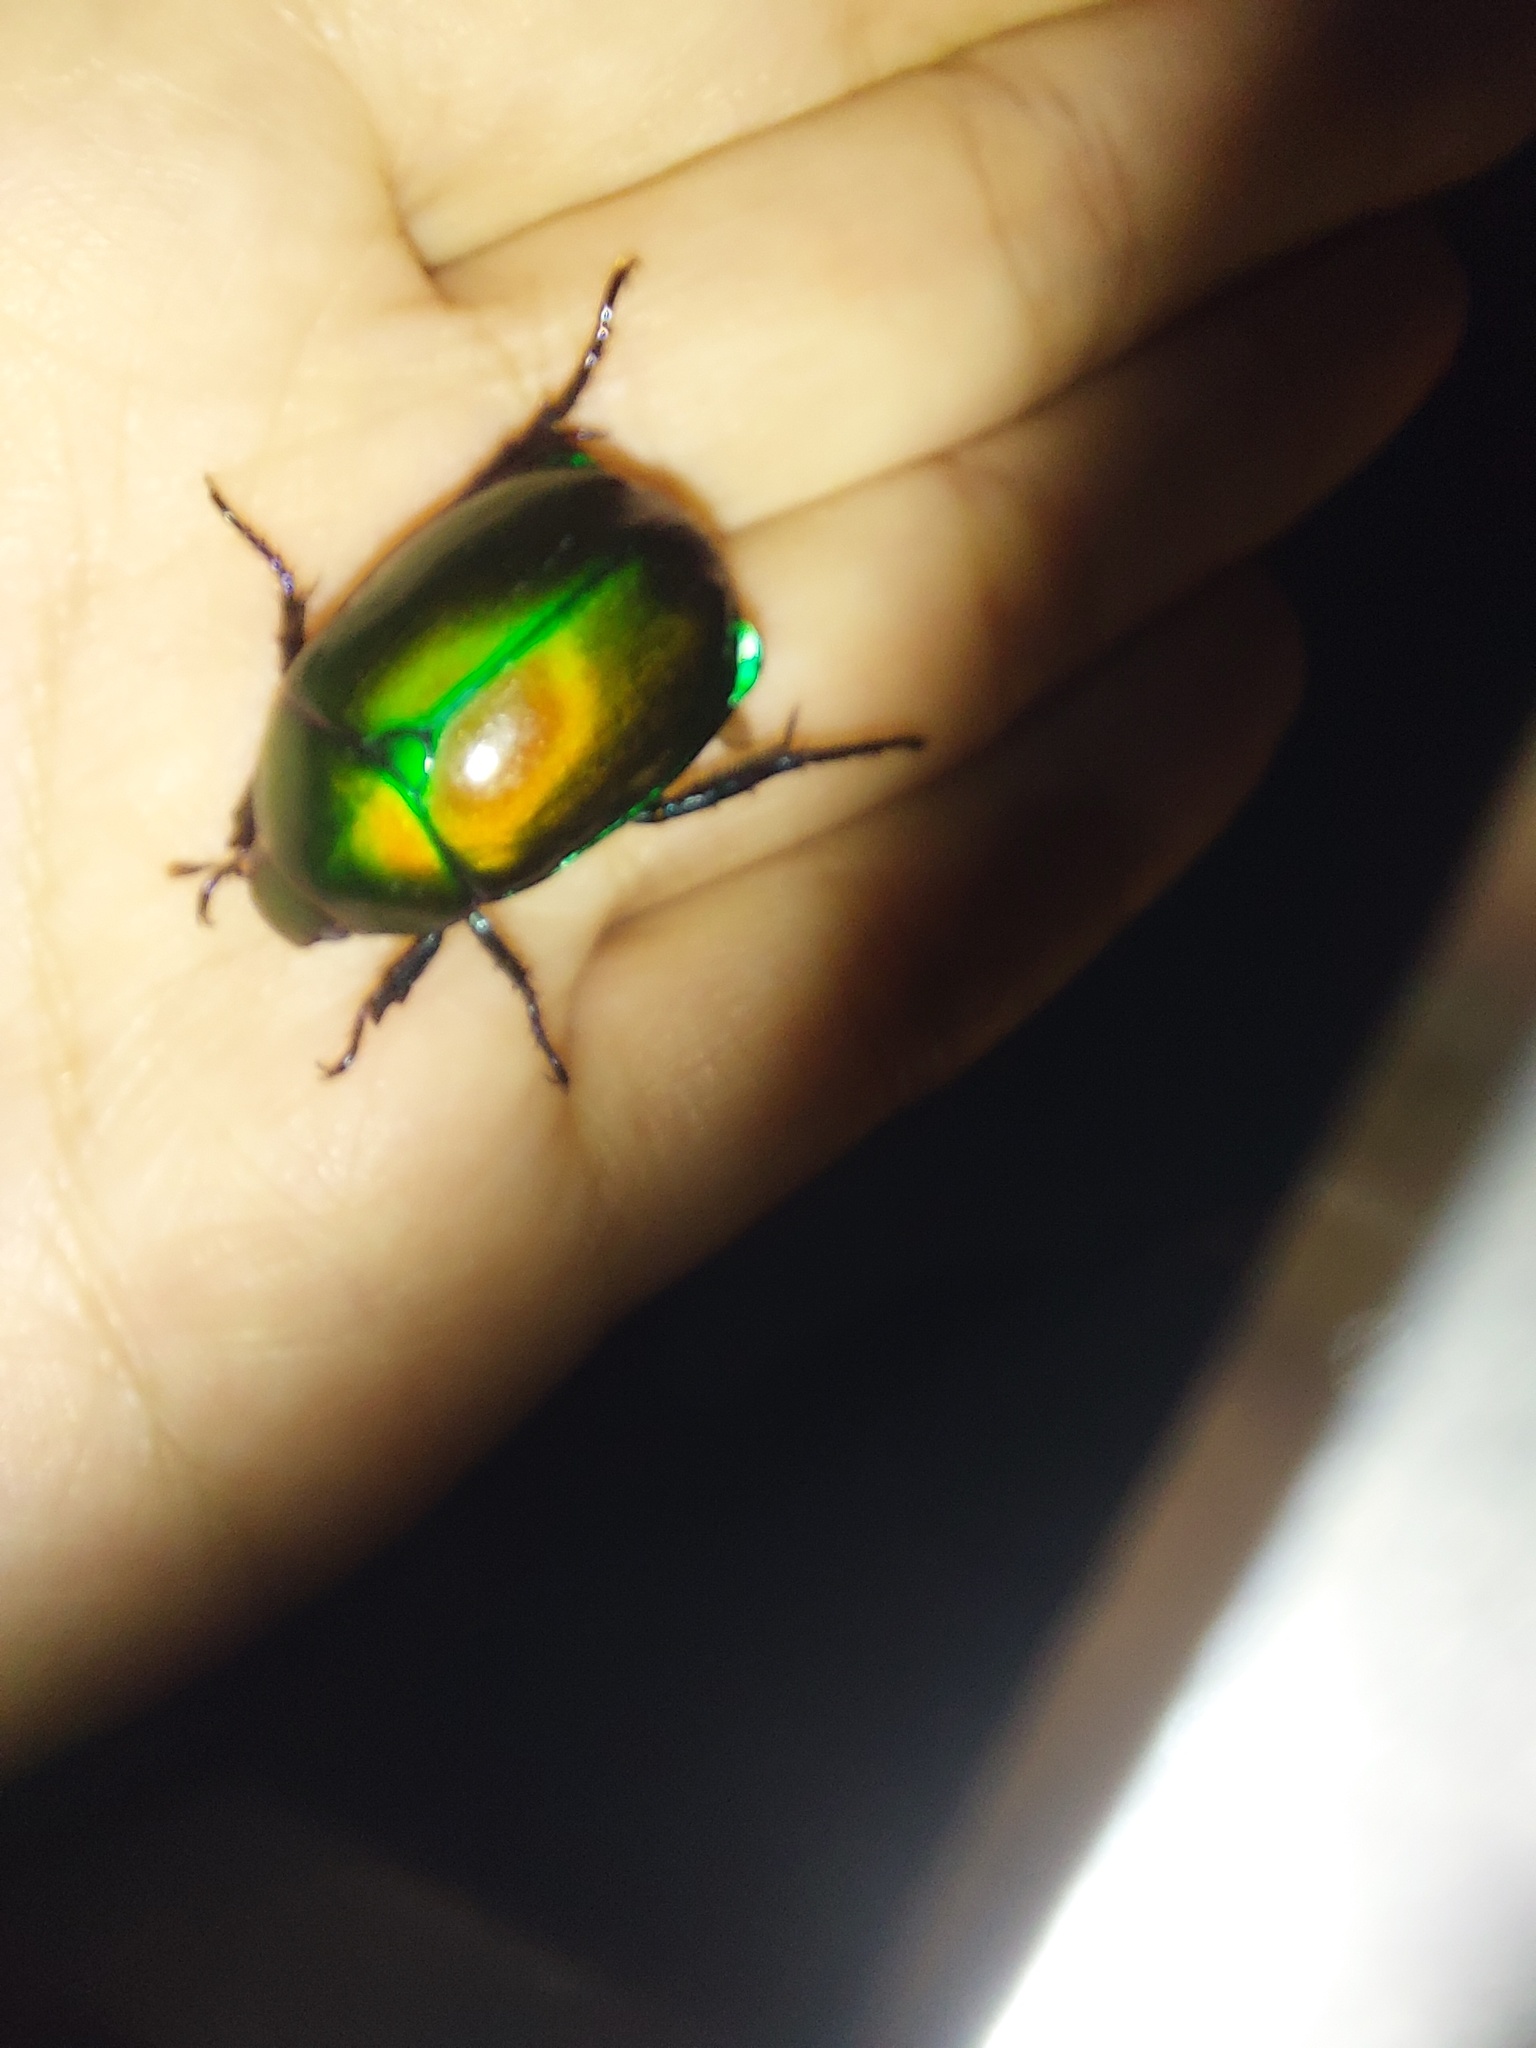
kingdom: Animalia
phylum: Arthropoda
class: Insecta
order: Coleoptera
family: Scarabaeidae
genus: Anomala
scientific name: Anomala expansa
